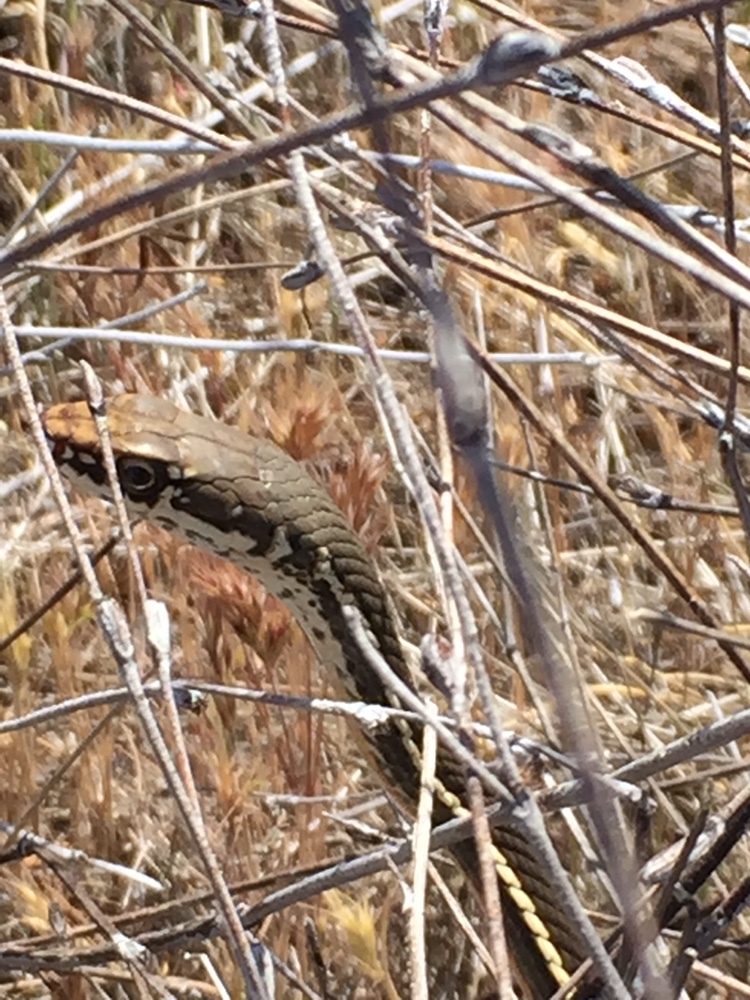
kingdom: Animalia
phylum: Chordata
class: Squamata
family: Colubridae
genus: Masticophis
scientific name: Masticophis lateralis
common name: Striped racer
